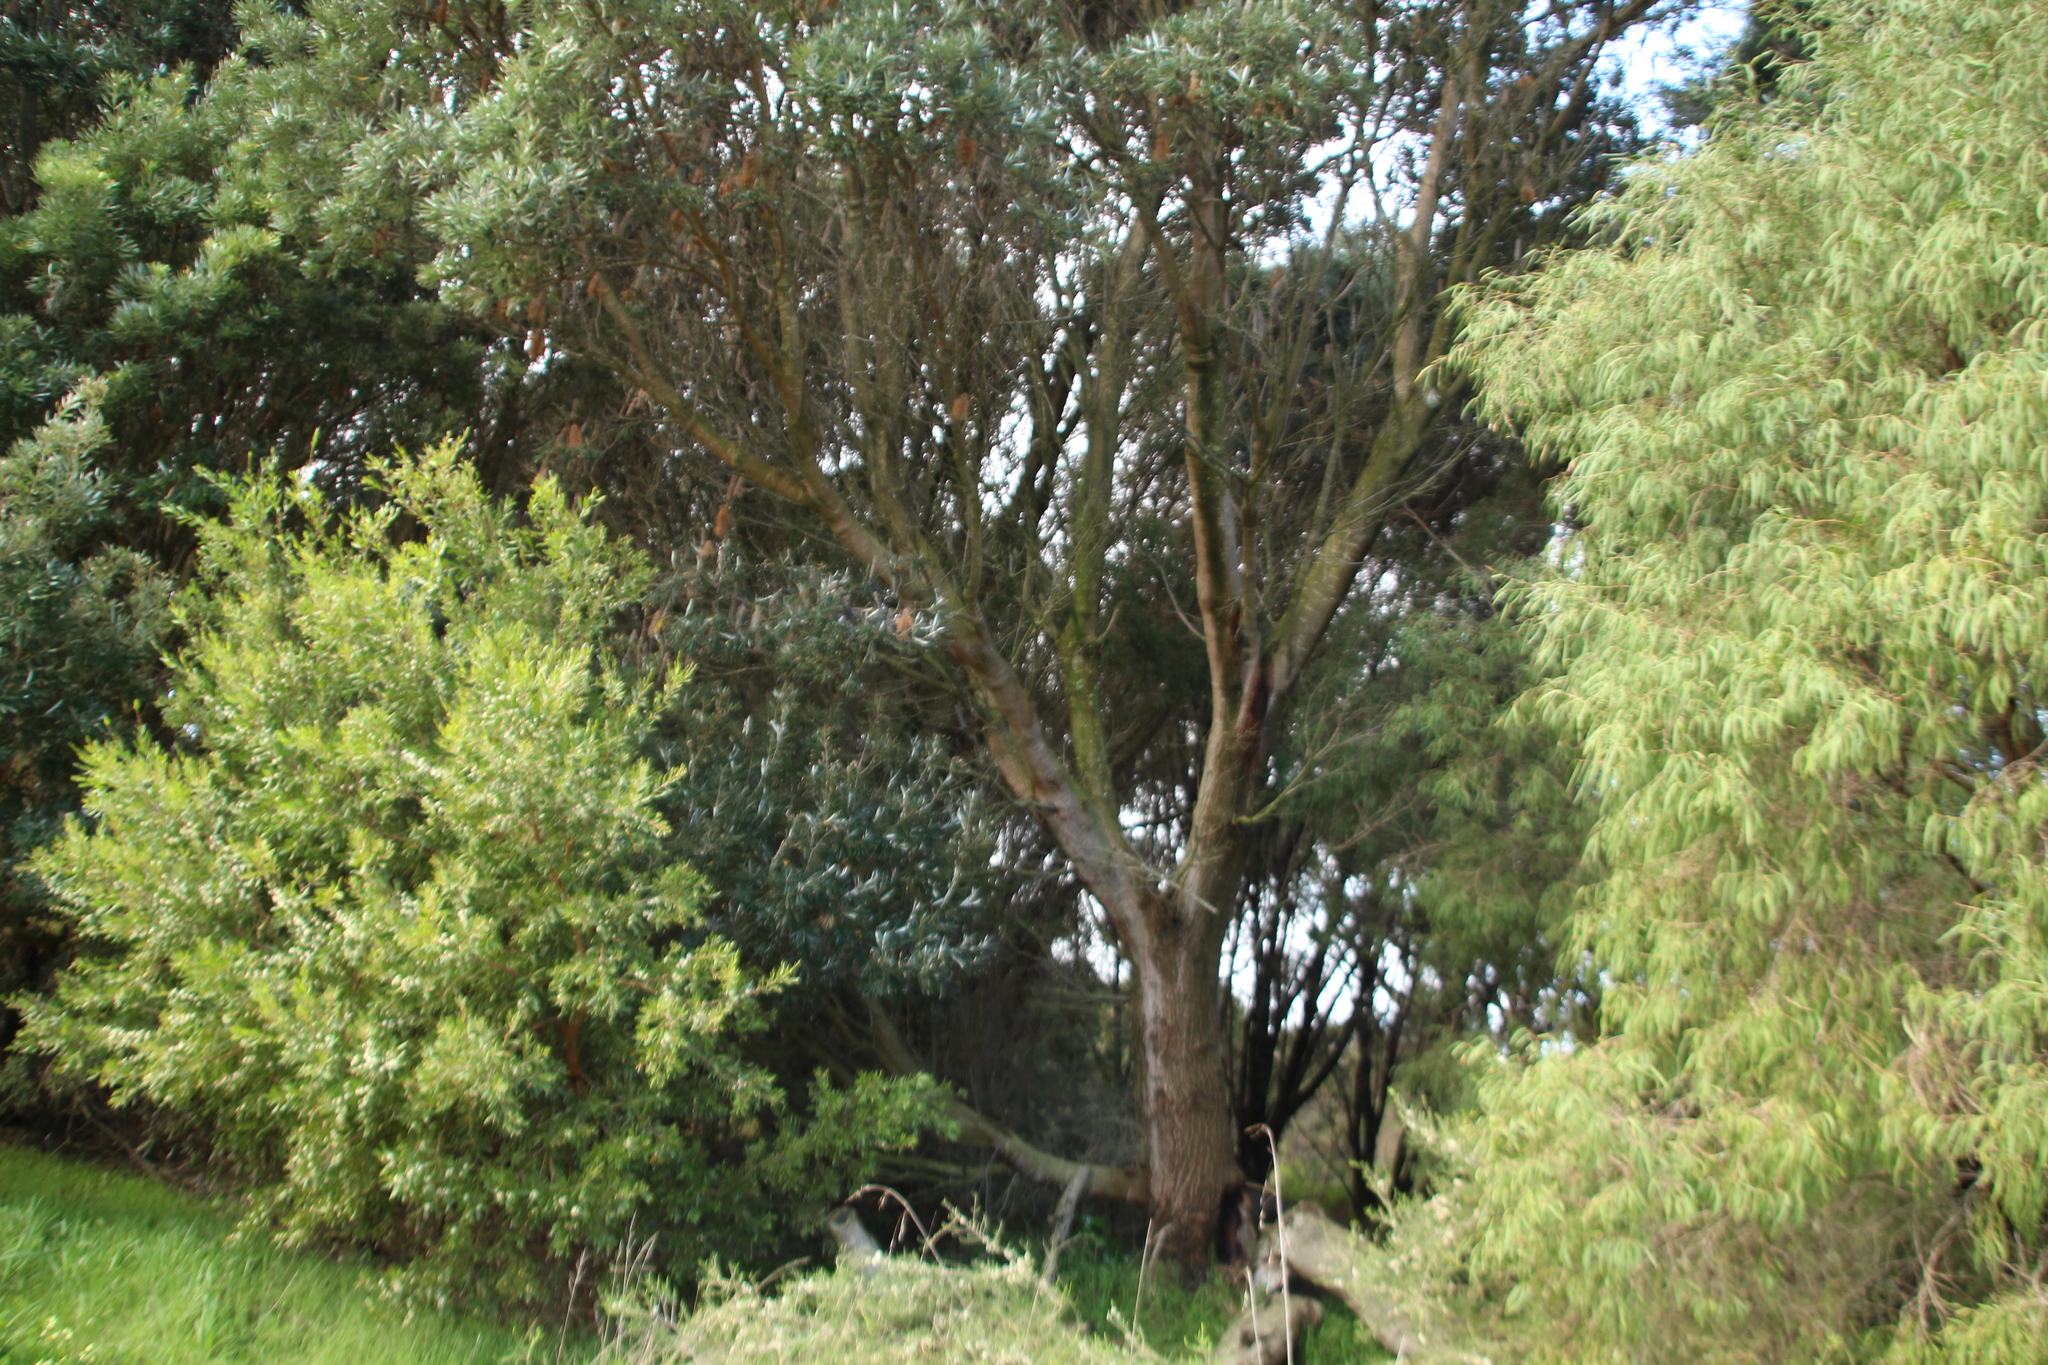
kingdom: Plantae
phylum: Tracheophyta
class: Magnoliopsida
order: Proteales
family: Proteaceae
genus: Banksia
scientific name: Banksia seminuda
